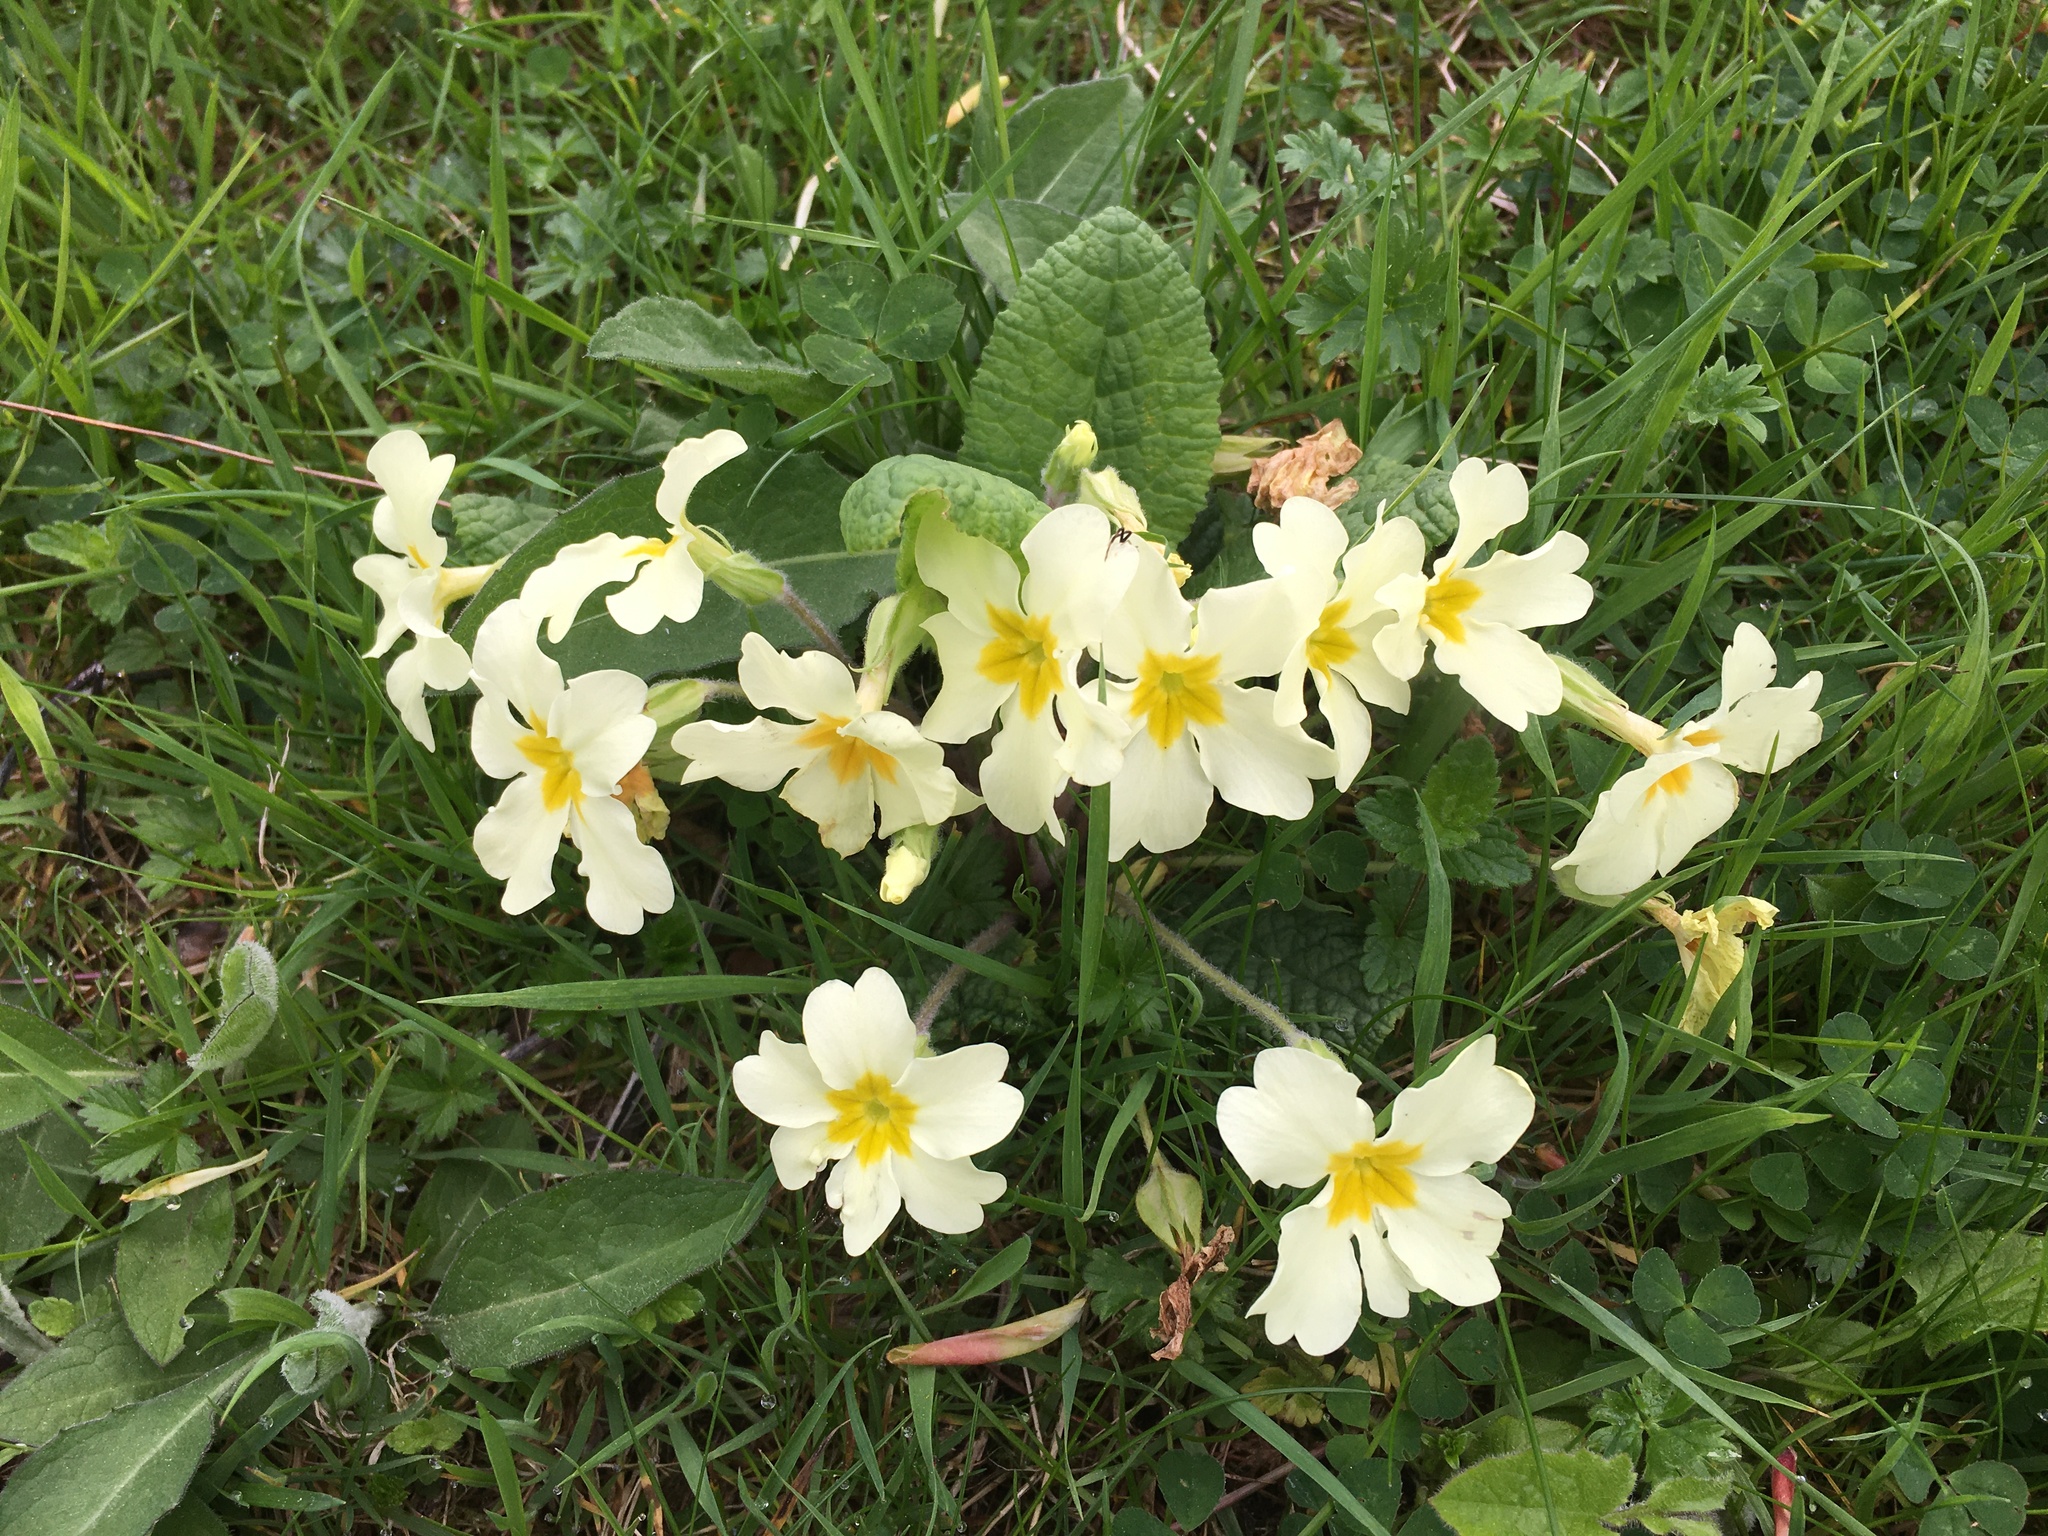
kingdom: Plantae
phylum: Tracheophyta
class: Magnoliopsida
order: Ericales
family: Primulaceae
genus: Primula
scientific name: Primula vulgaris
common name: Primrose
